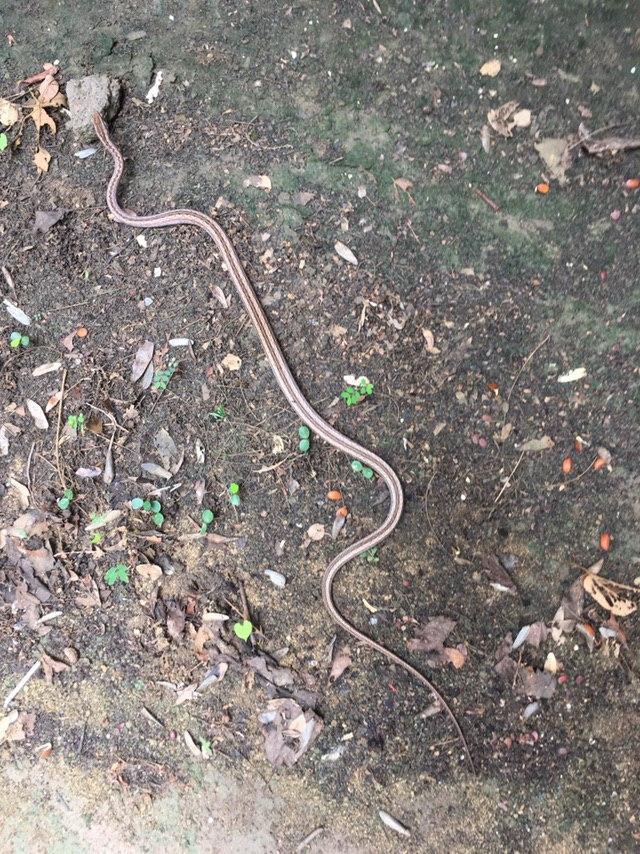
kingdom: Animalia
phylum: Chordata
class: Squamata
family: Psammophiidae
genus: Mimophis
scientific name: Mimophis mahfalensis
